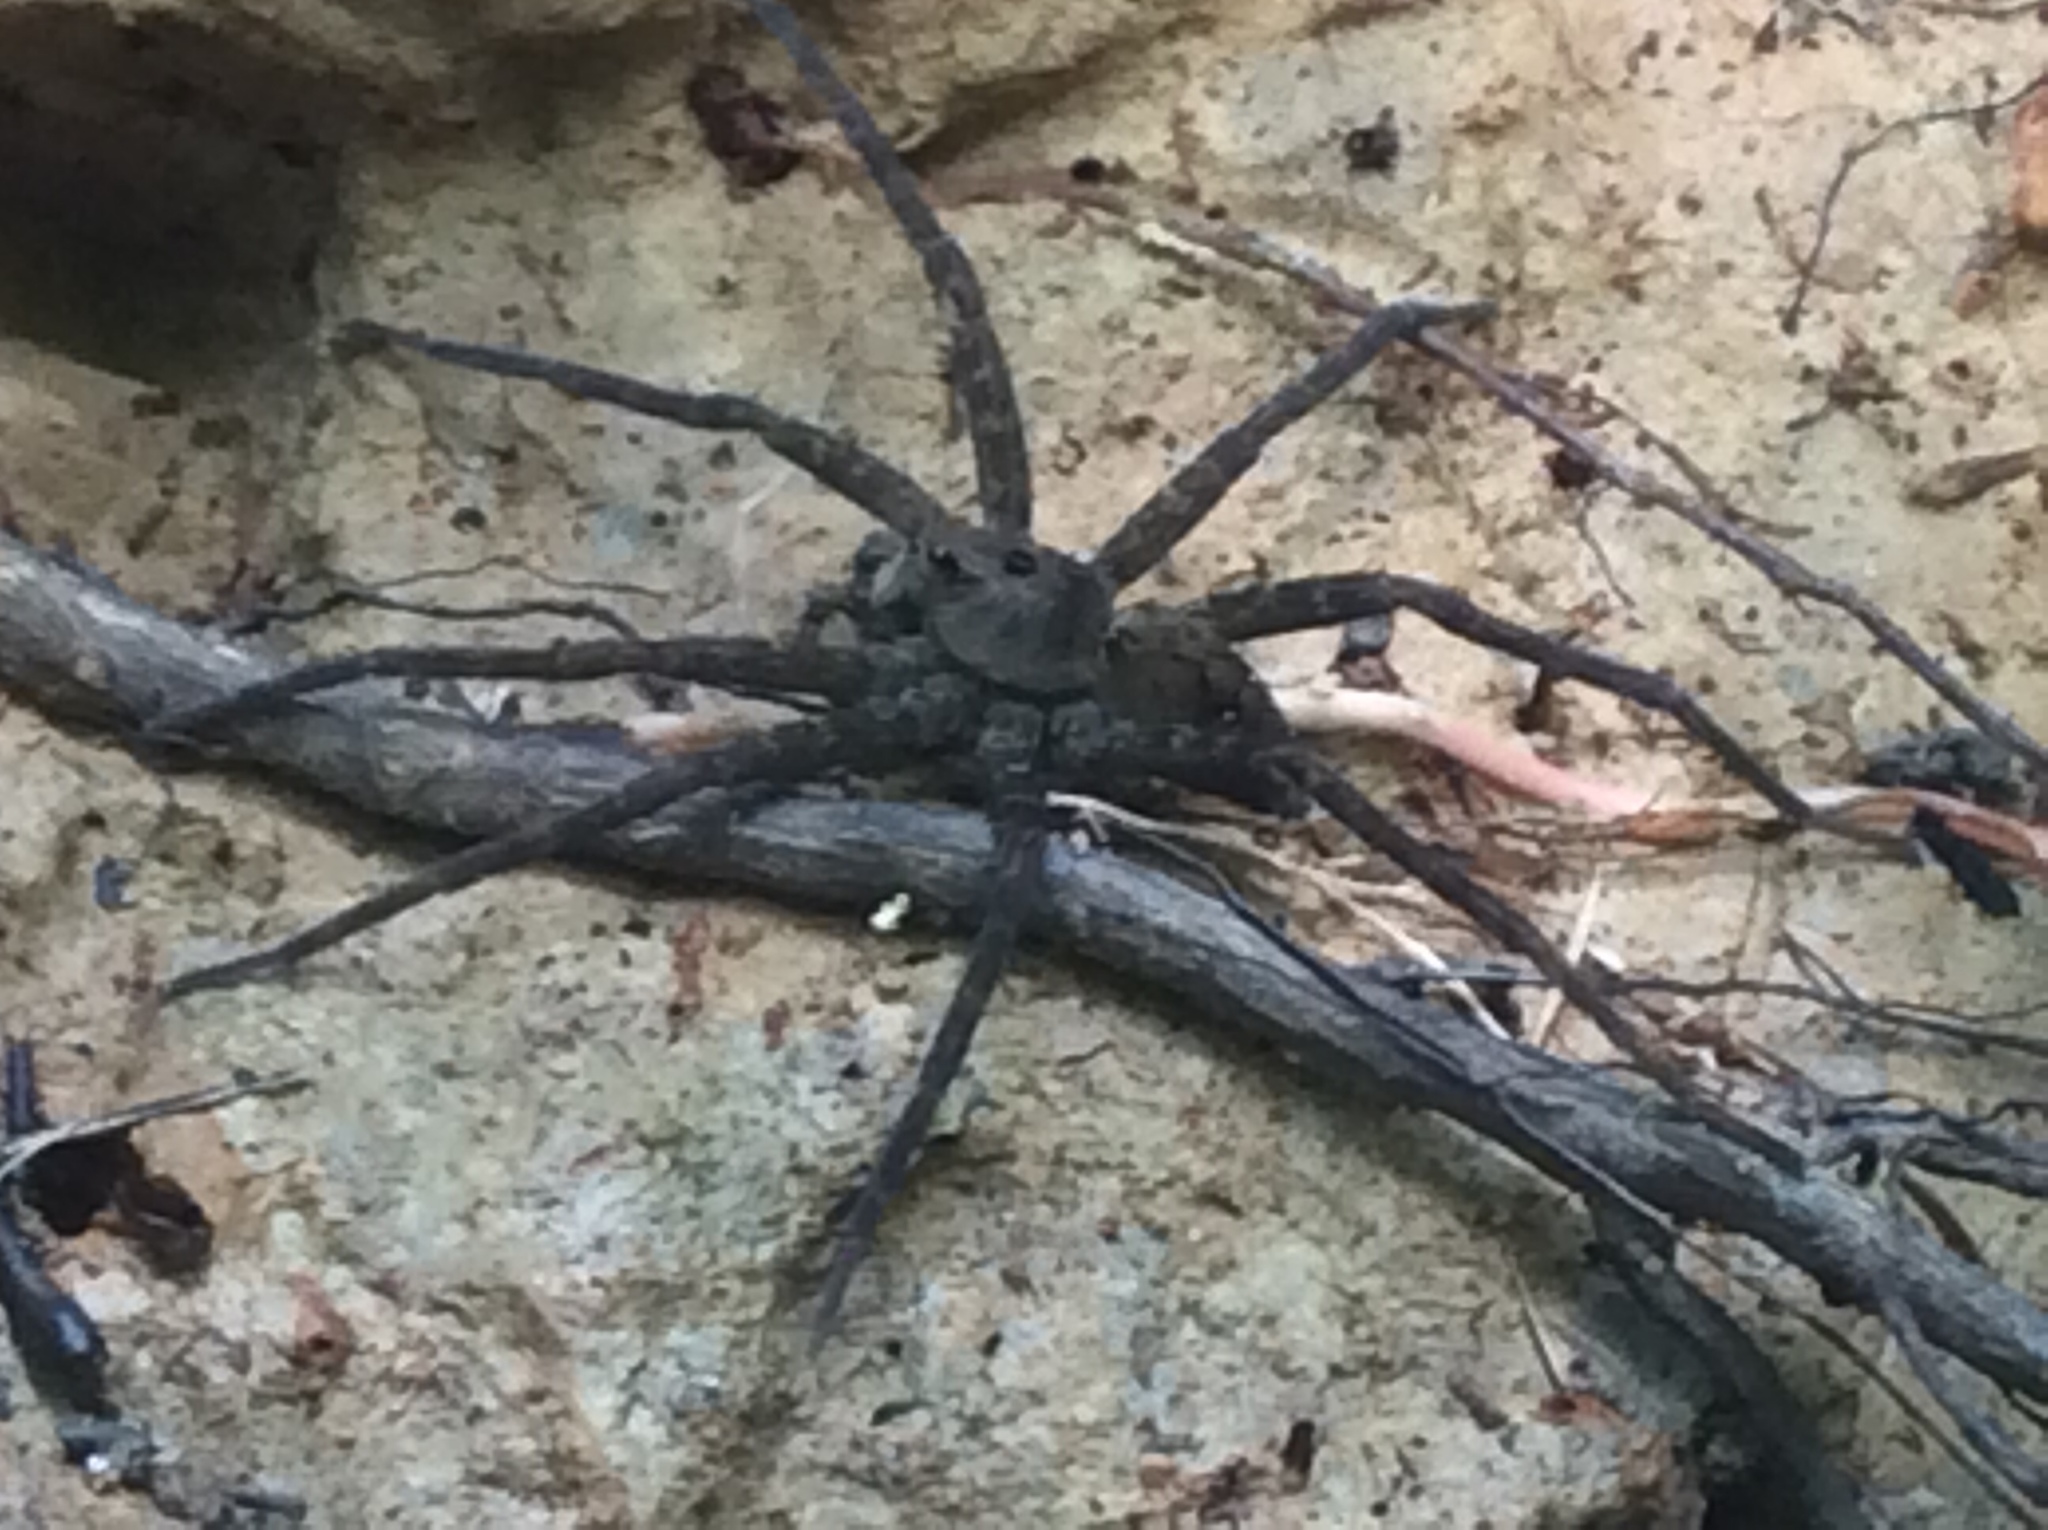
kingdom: Animalia
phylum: Arthropoda
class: Arachnida
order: Araneae
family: Pisauridae
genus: Dolomedes
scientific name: Dolomedes vittatus
